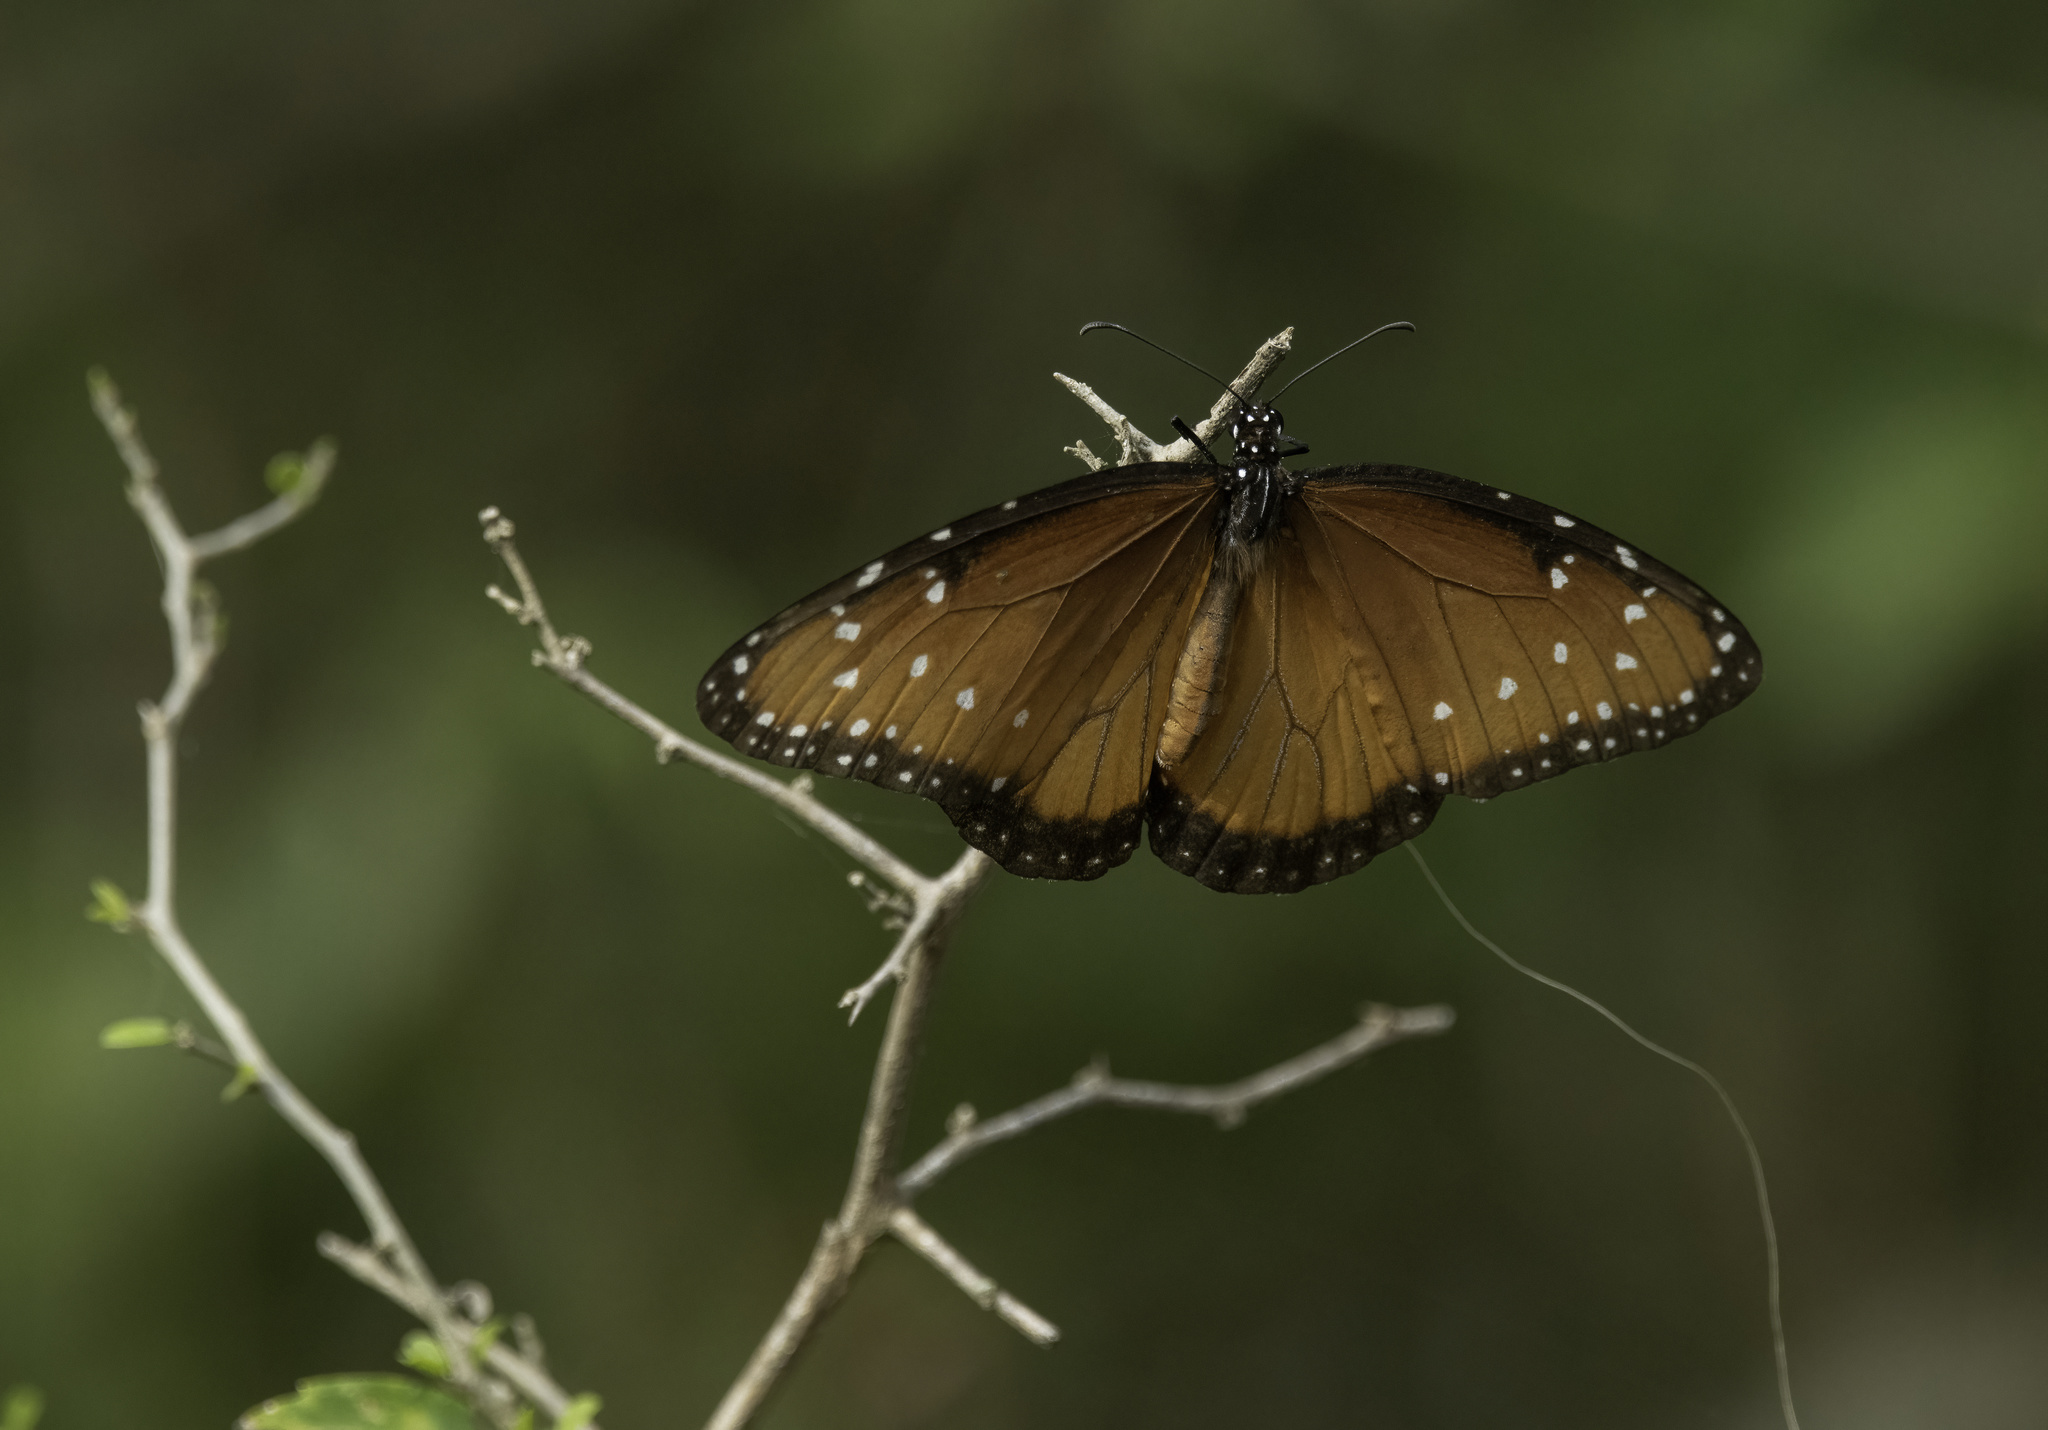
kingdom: Animalia
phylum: Arthropoda
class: Insecta
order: Lepidoptera
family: Nymphalidae
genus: Danaus
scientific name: Danaus gilippus
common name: Queen
